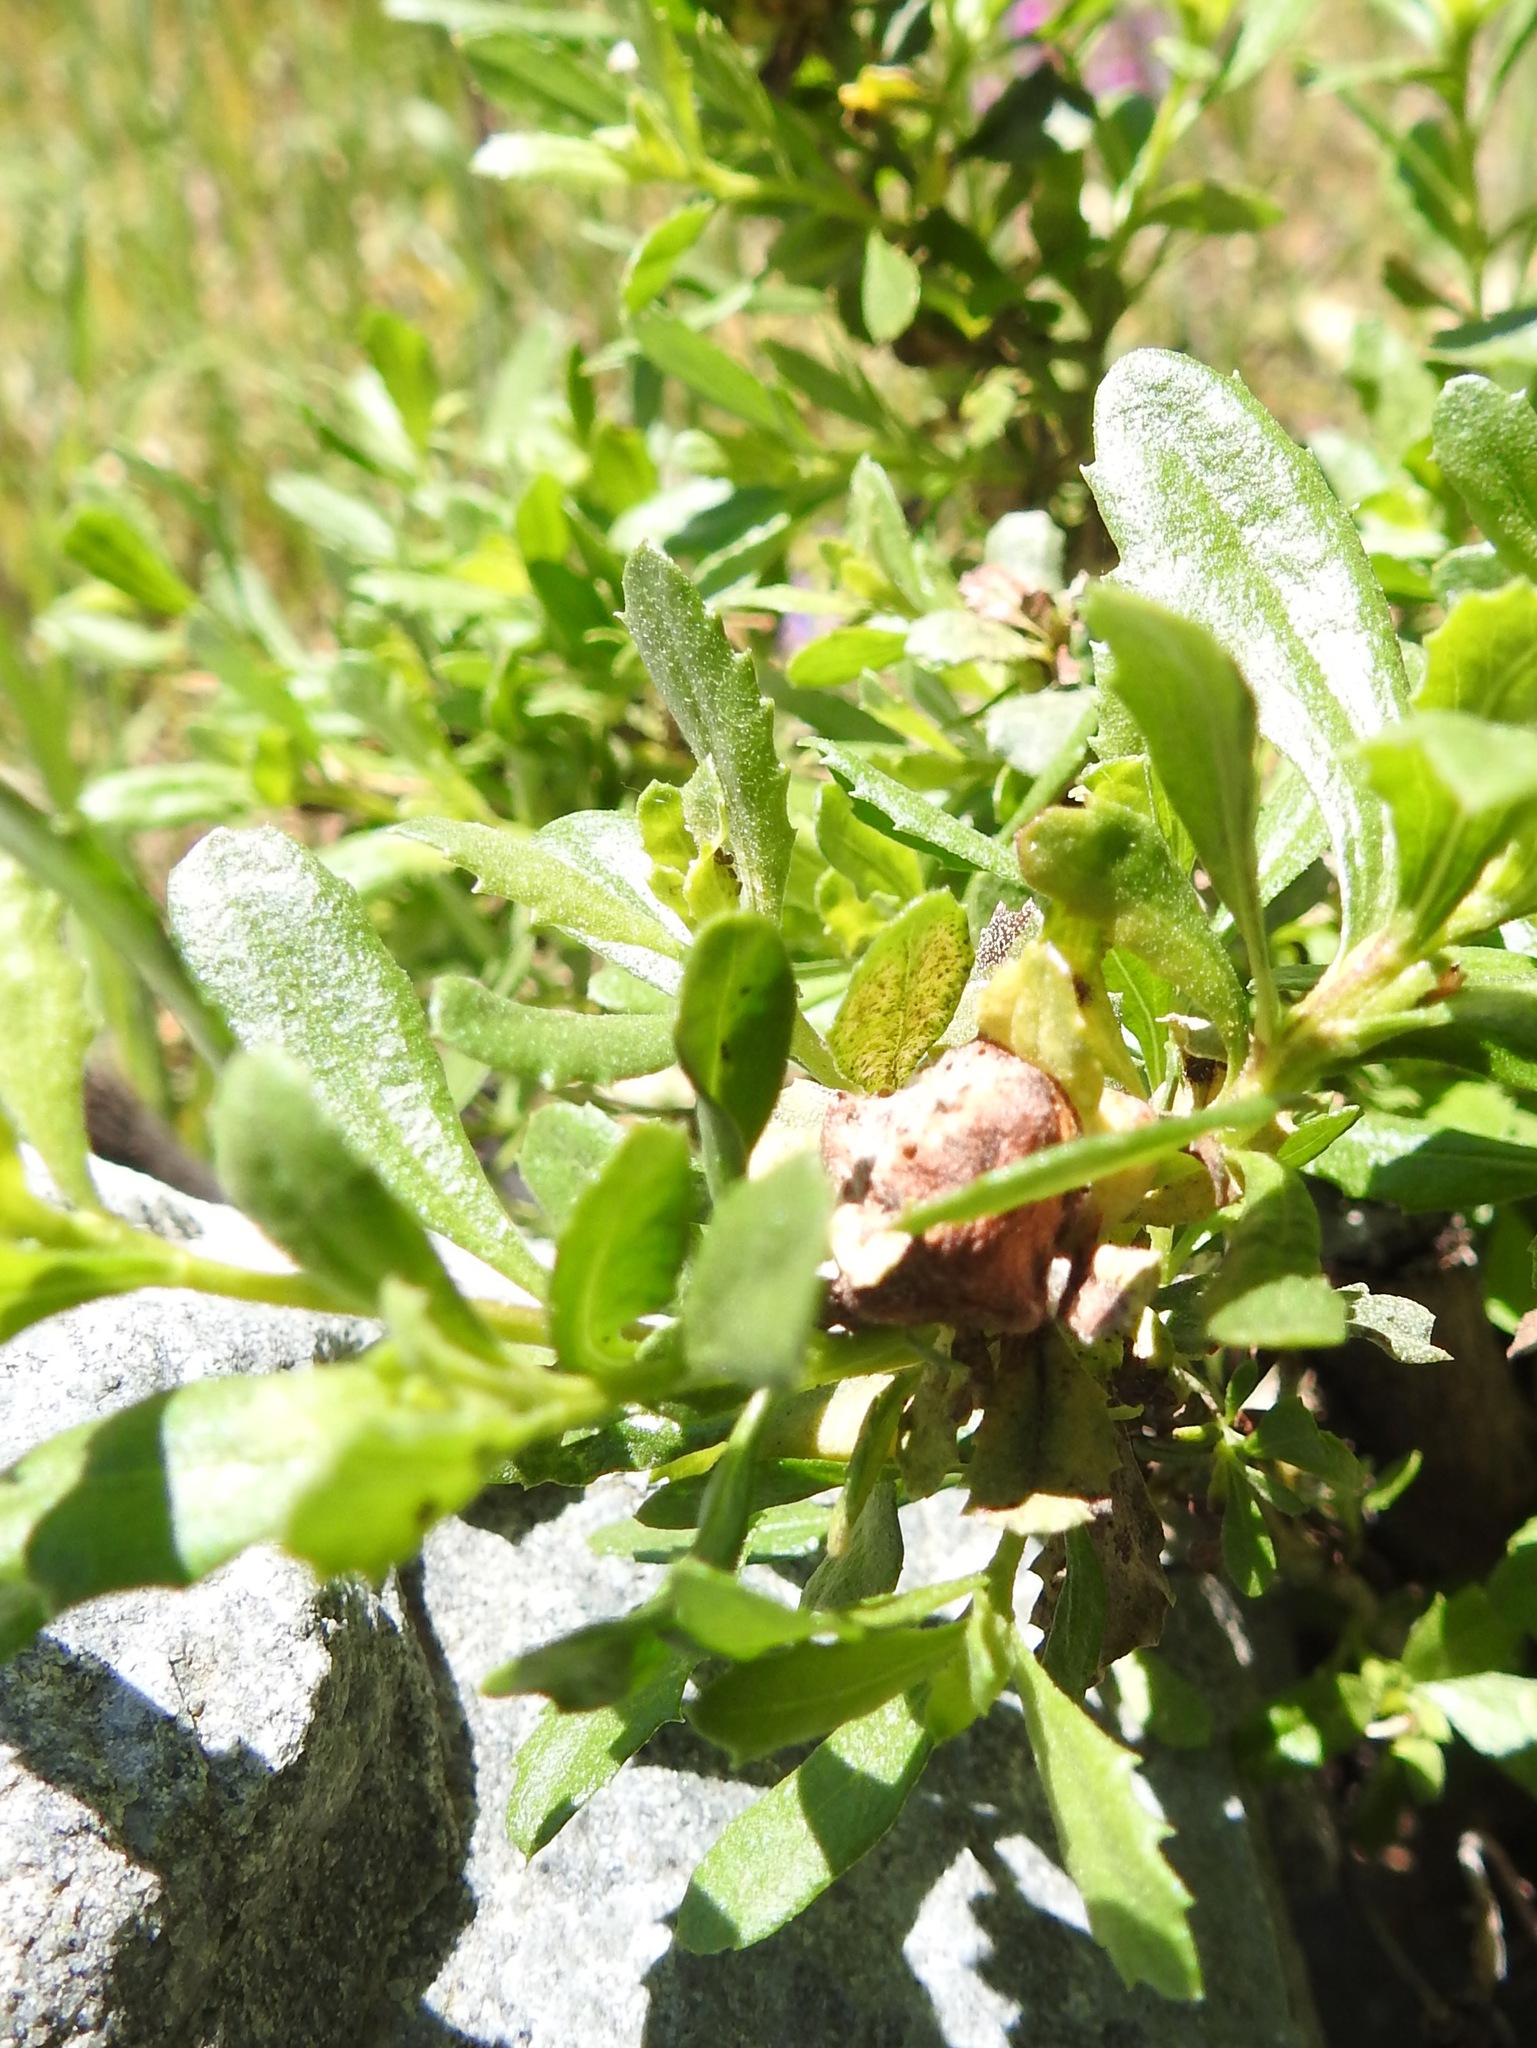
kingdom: Animalia
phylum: Arthropoda
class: Insecta
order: Diptera
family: Cecidomyiidae
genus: Rhopalomyia
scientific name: Rhopalomyia californica
